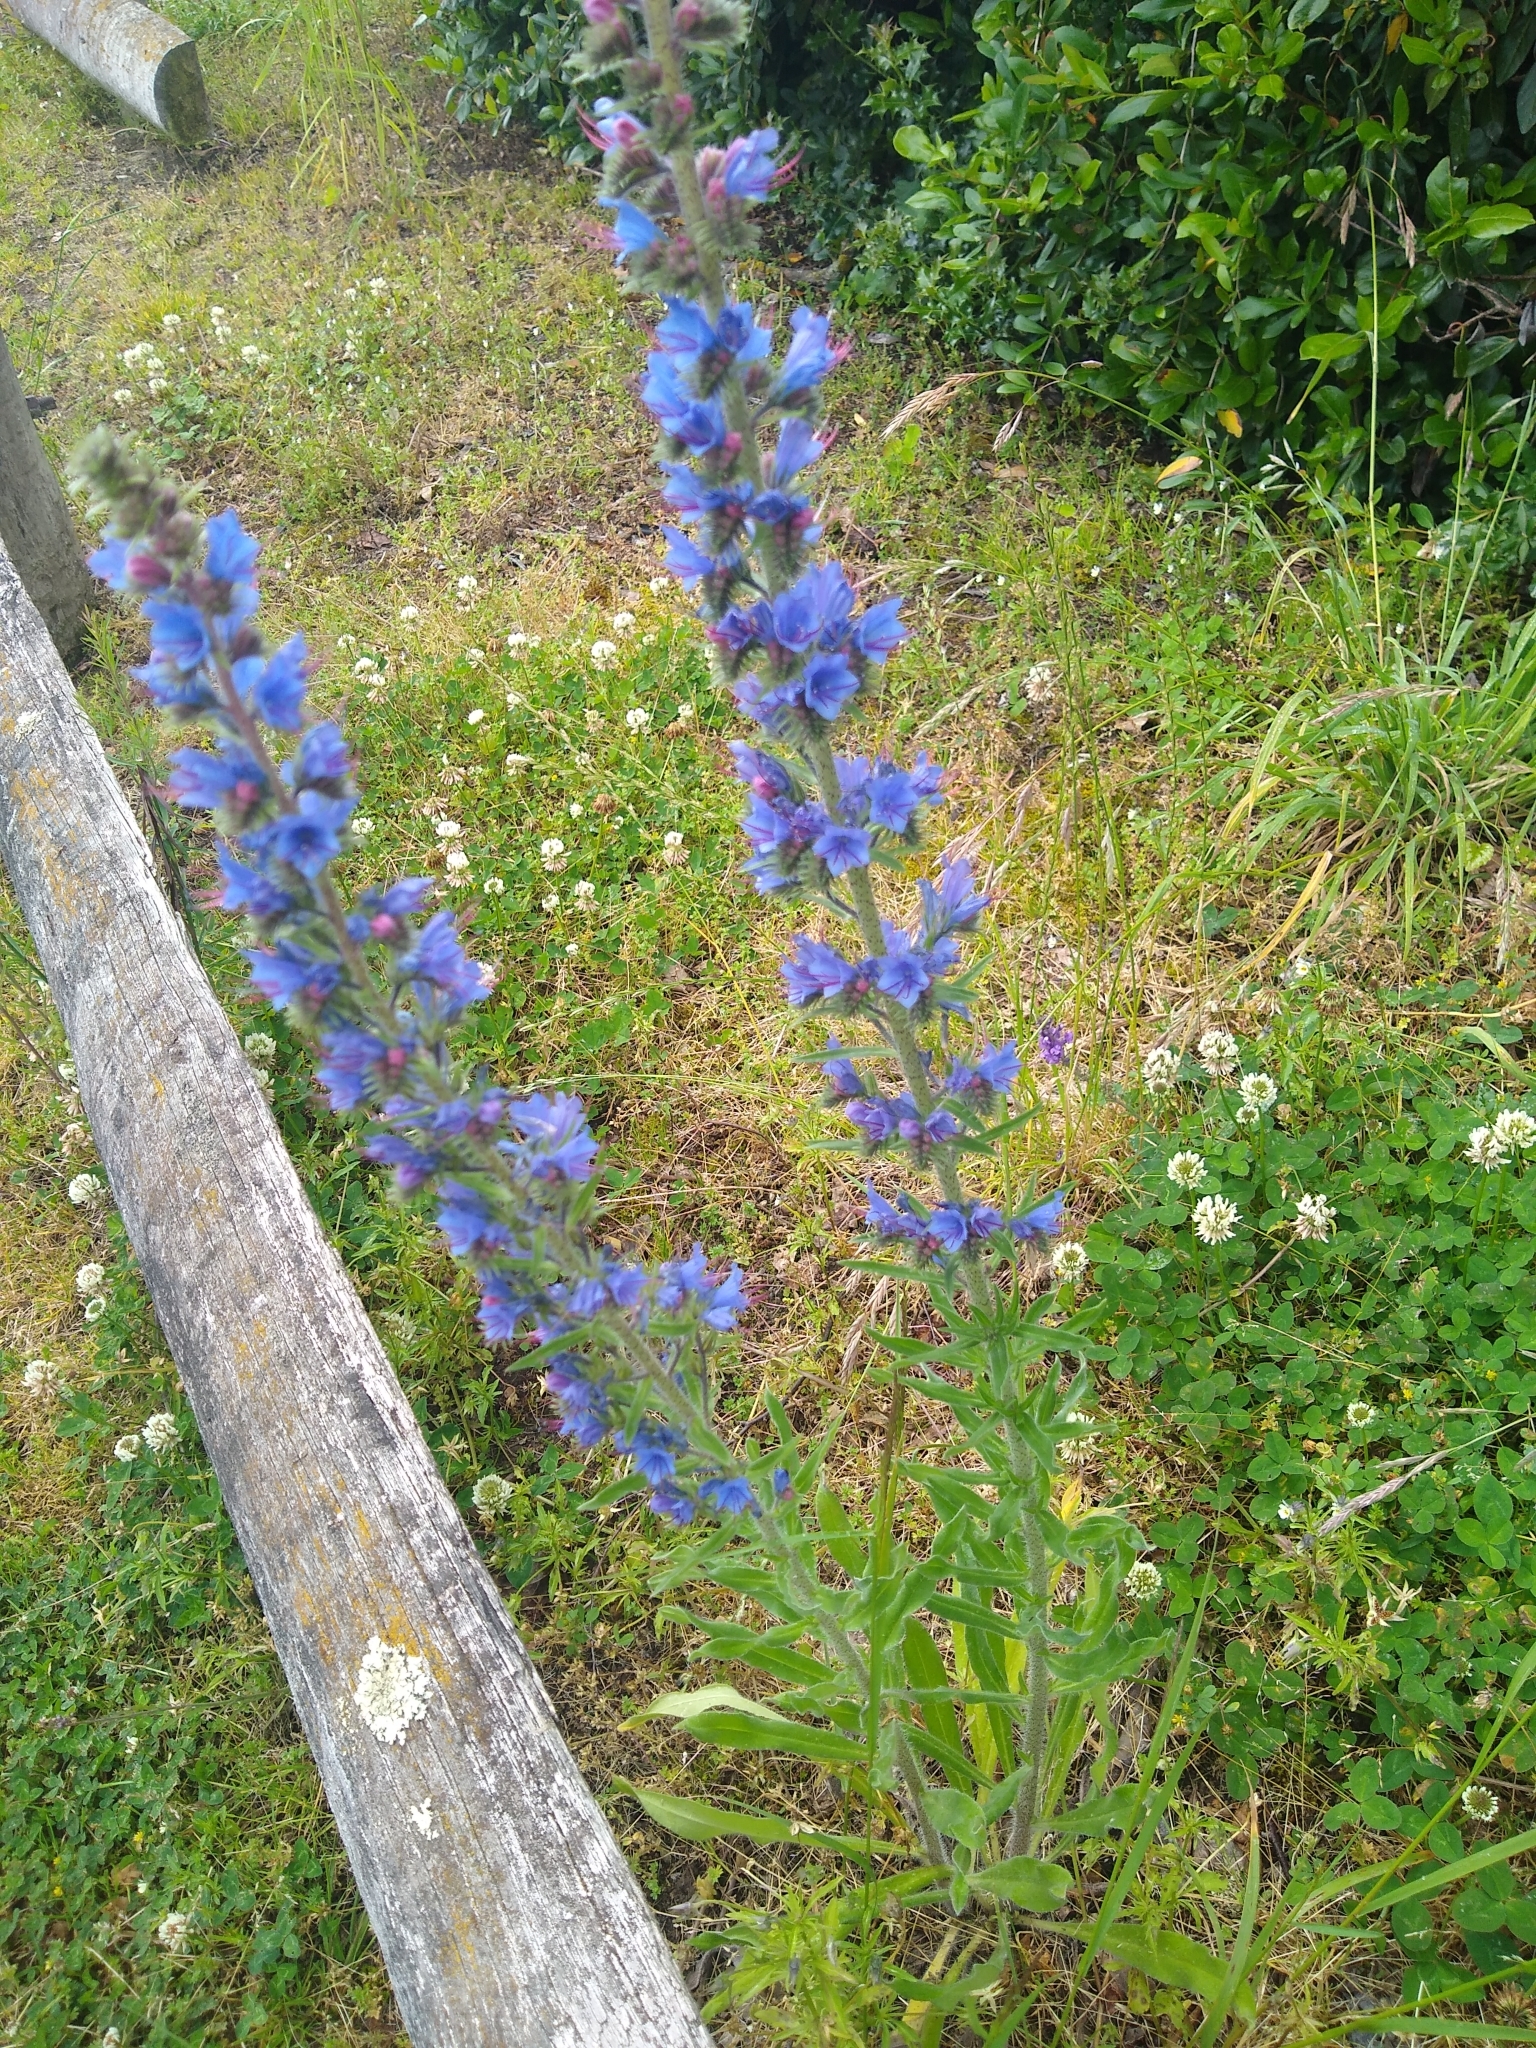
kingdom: Plantae
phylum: Tracheophyta
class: Magnoliopsida
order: Boraginales
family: Boraginaceae
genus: Echium
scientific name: Echium vulgare
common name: Common viper's bugloss
